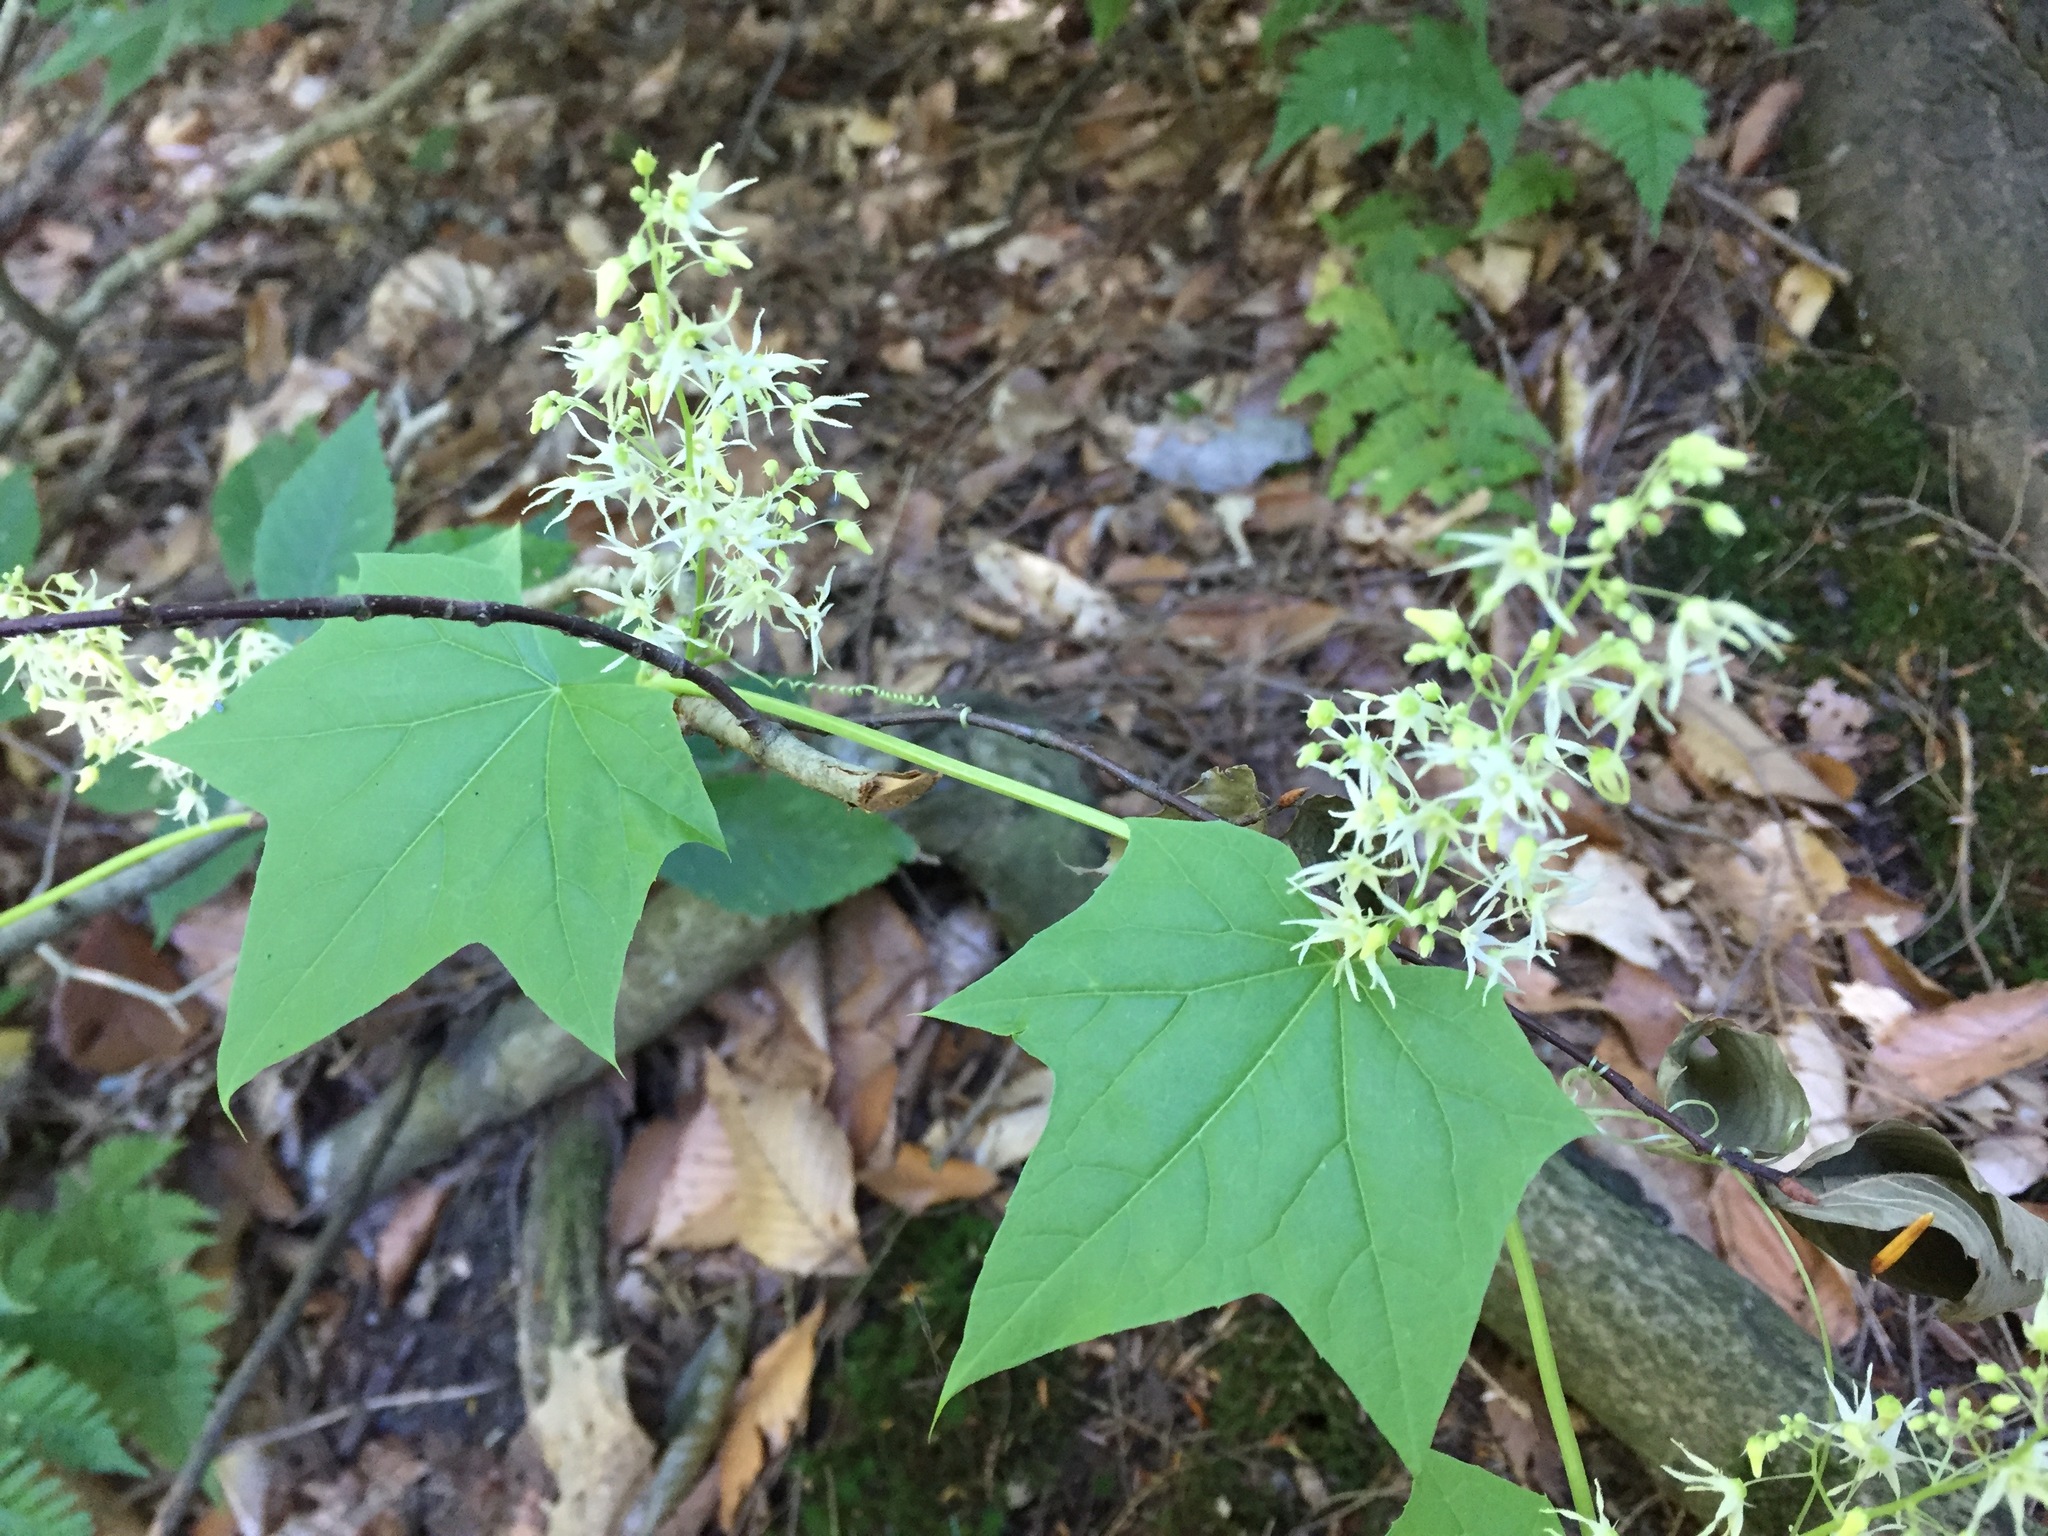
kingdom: Plantae
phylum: Tracheophyta
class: Magnoliopsida
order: Cucurbitales
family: Cucurbitaceae
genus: Echinocystis
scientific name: Echinocystis lobata
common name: Wild cucumber
